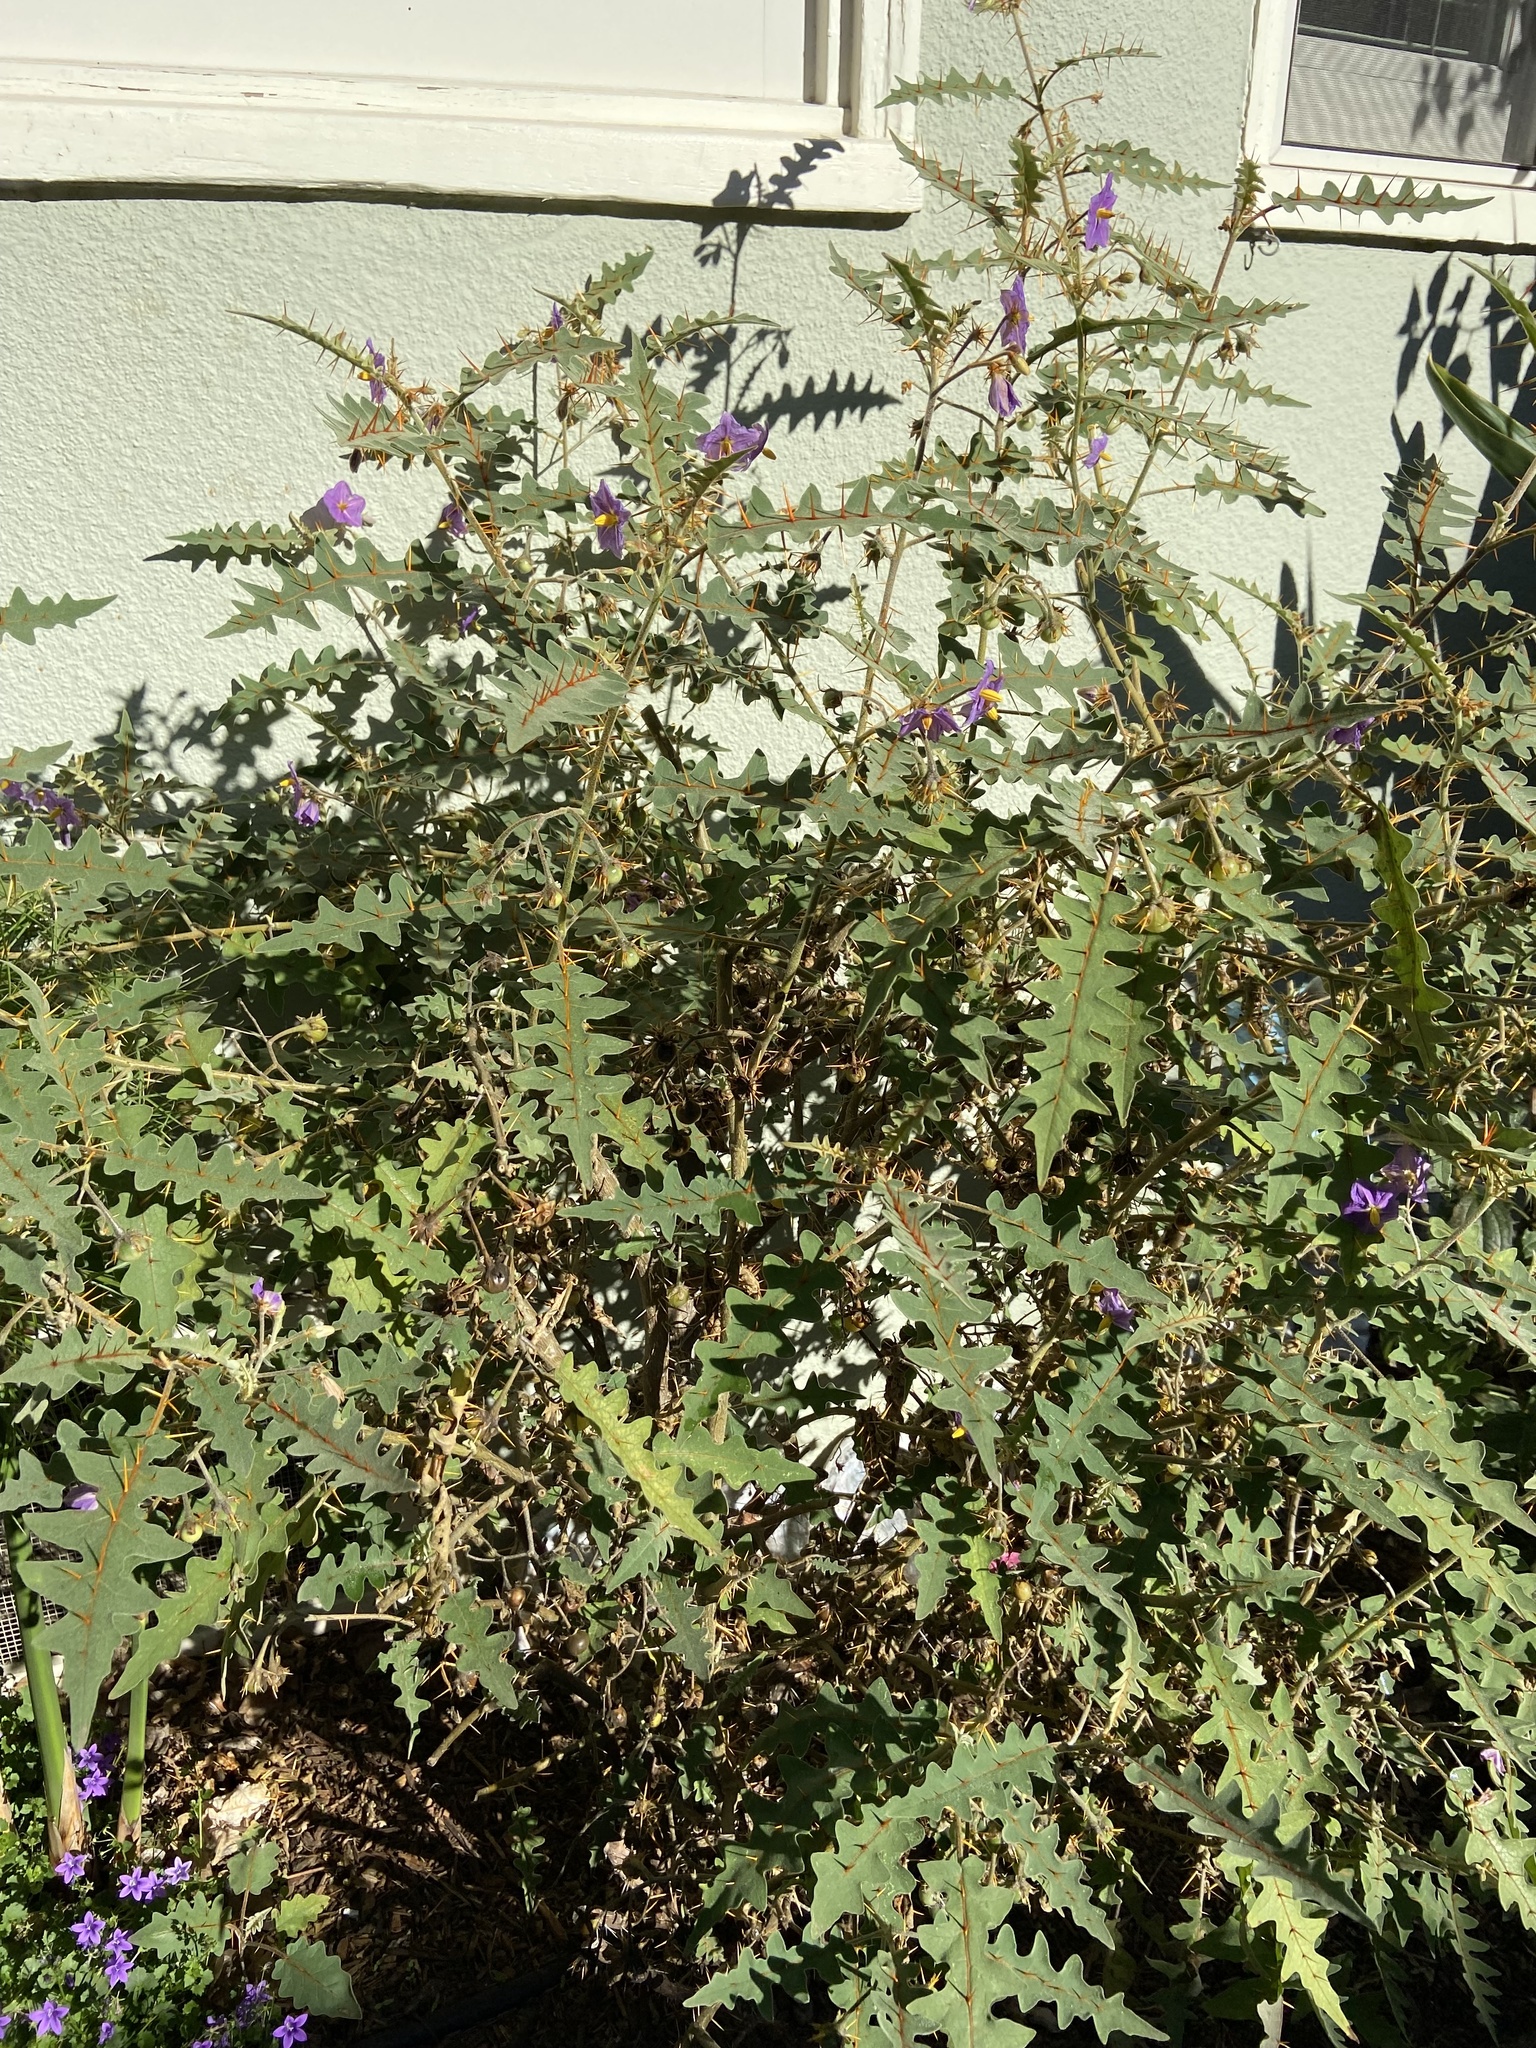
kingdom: Plantae
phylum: Tracheophyta
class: Magnoliopsida
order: Solanales
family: Solanaceae
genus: Solanum
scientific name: Solanum pyracanthos
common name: Porcupine-tomato
